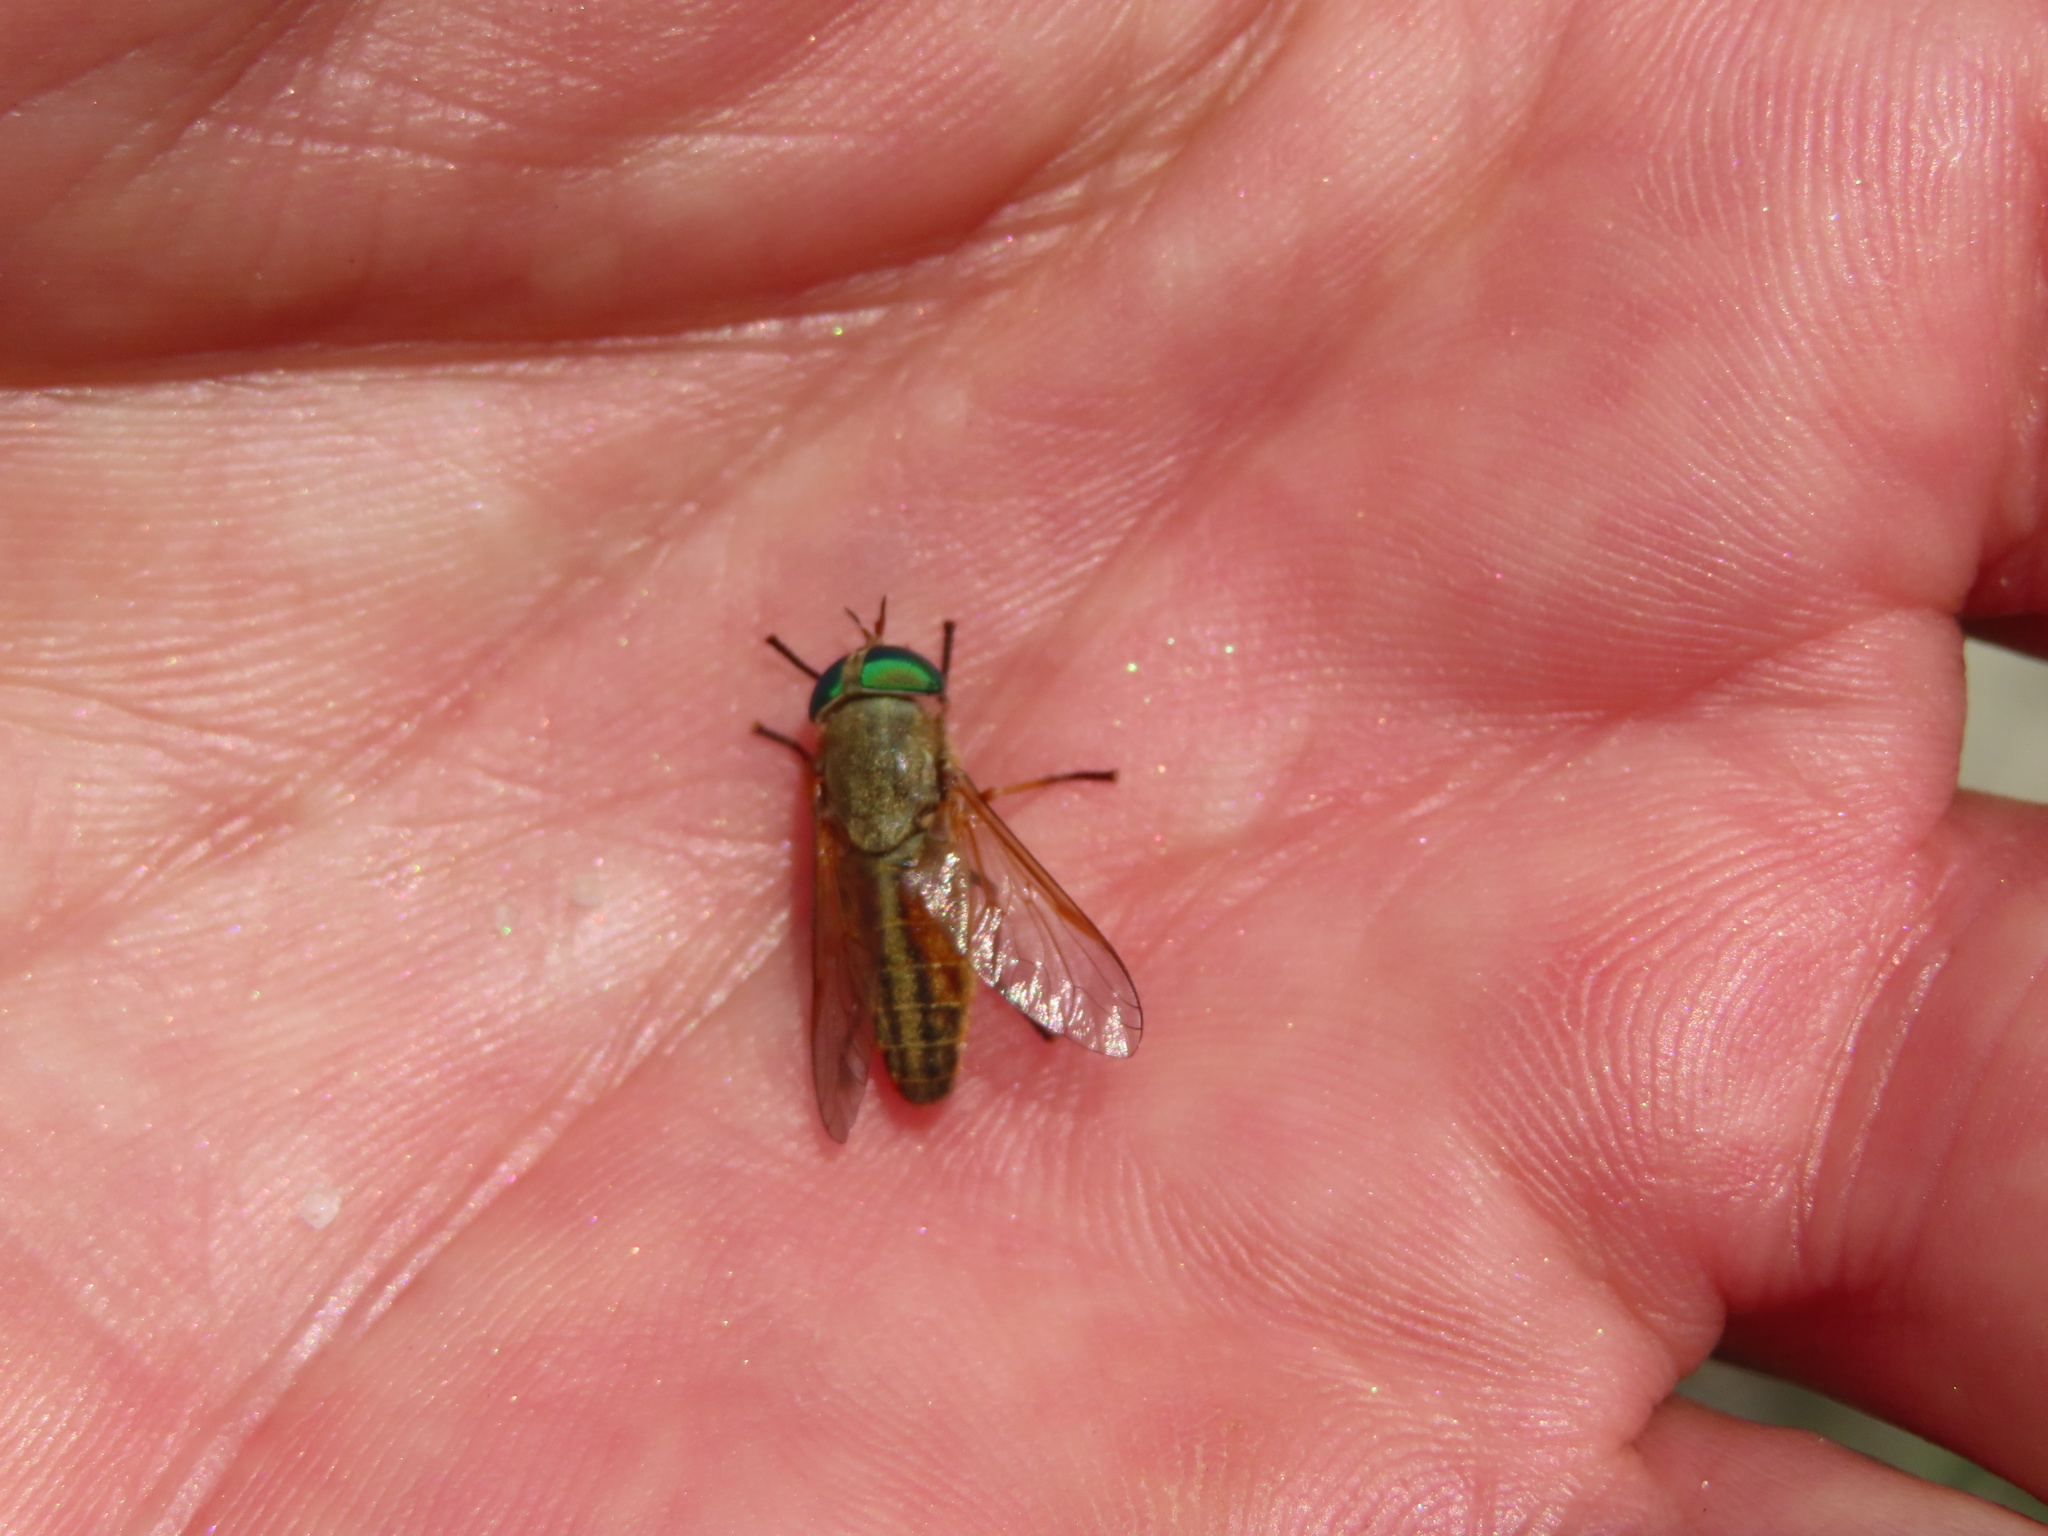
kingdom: Animalia
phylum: Arthropoda
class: Insecta
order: Diptera
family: Tabanidae
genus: Tabanus
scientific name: Tabanus
